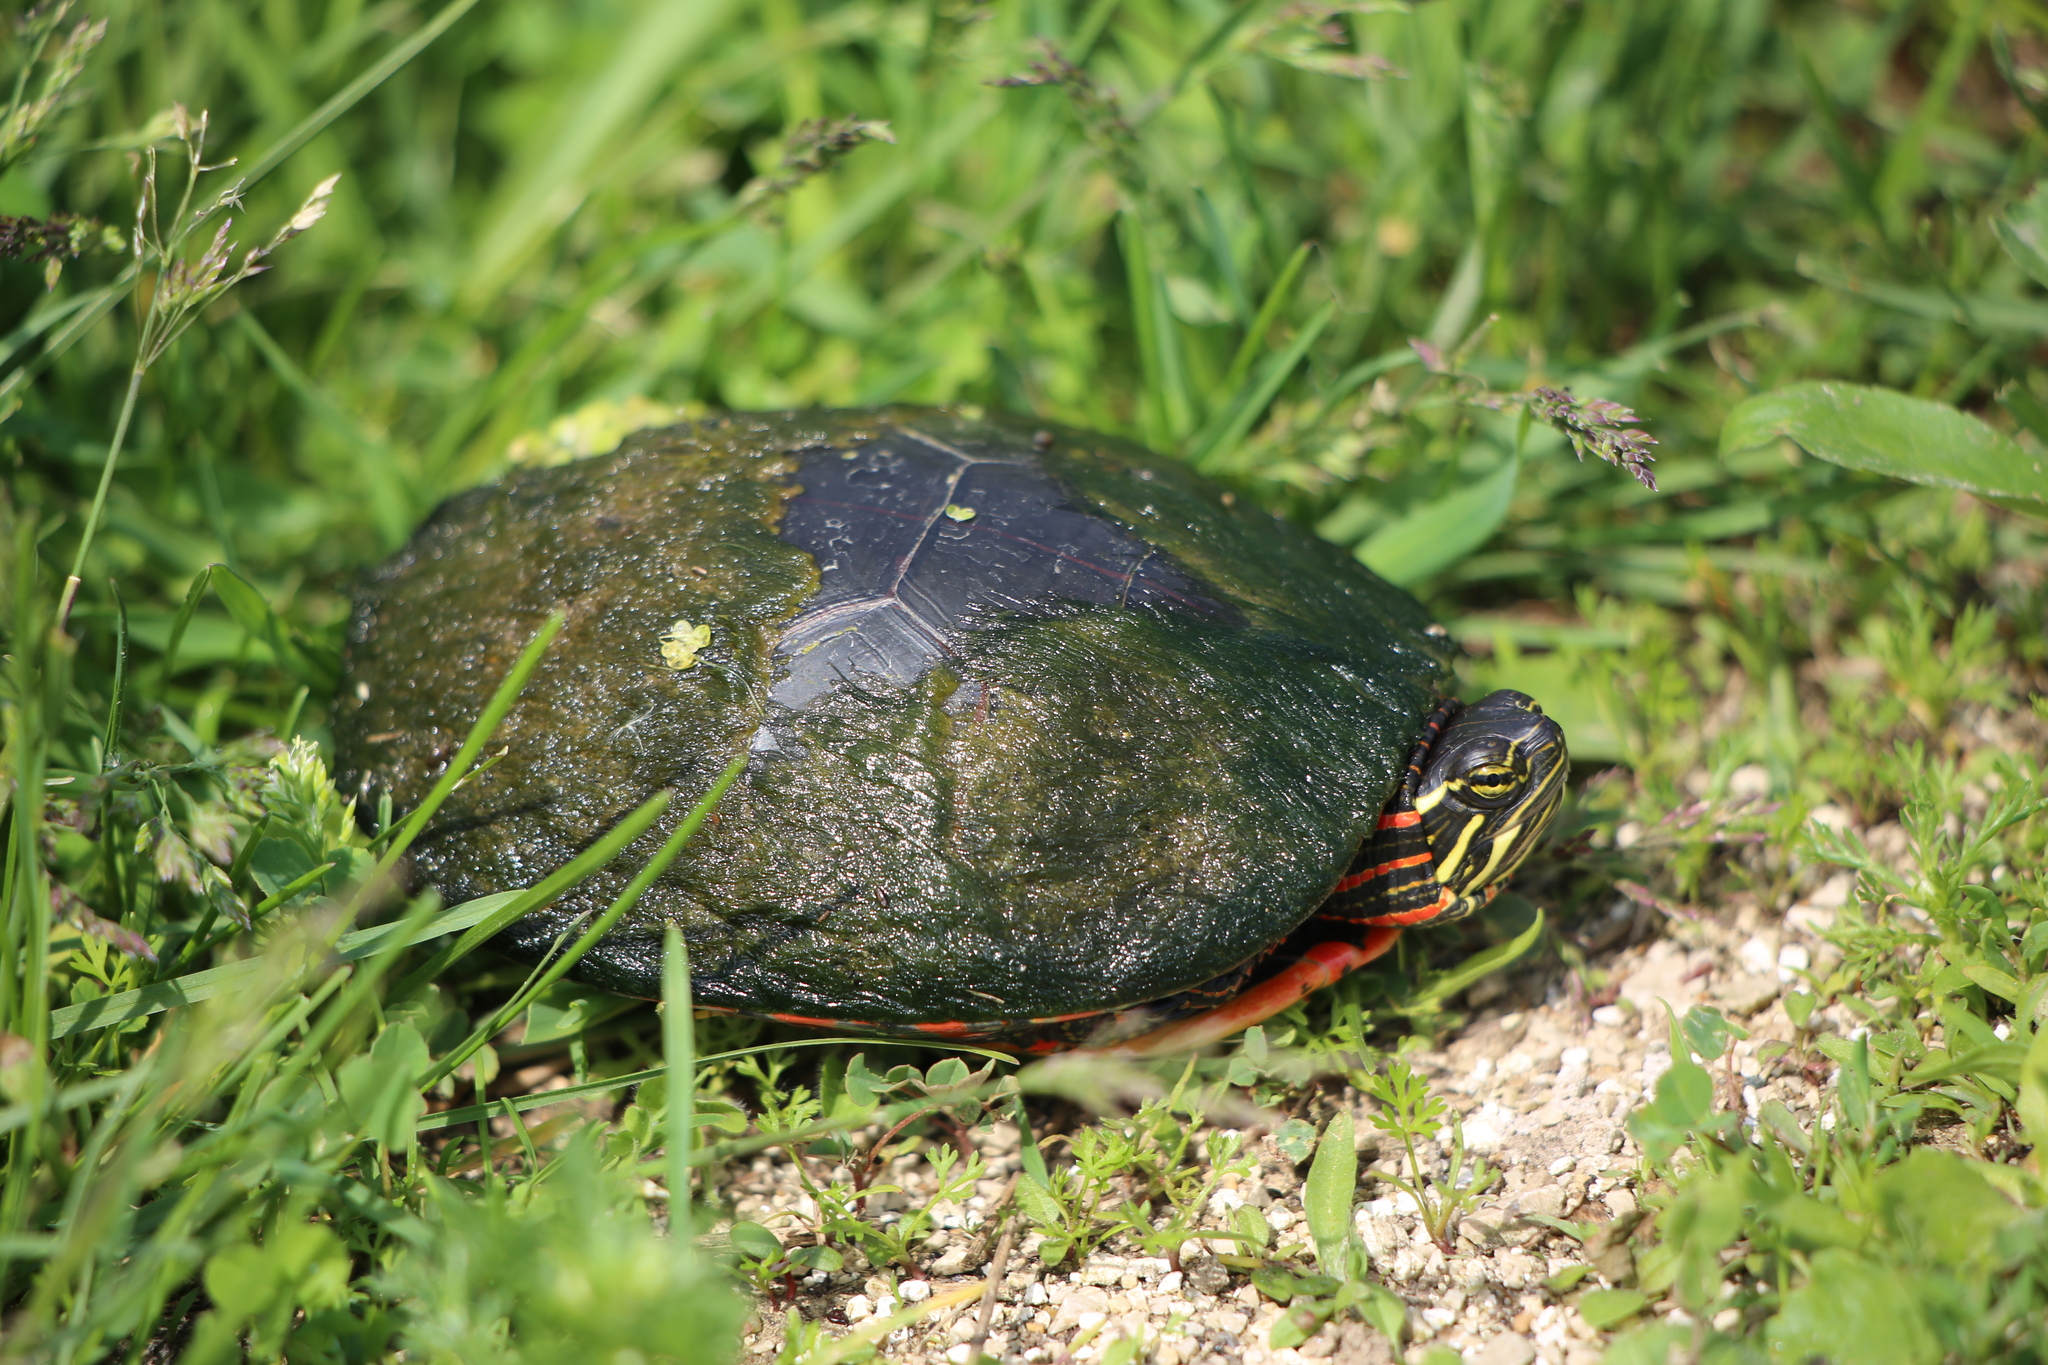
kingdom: Animalia
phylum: Chordata
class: Testudines
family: Emydidae
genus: Chrysemys
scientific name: Chrysemys picta
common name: Painted turtle
